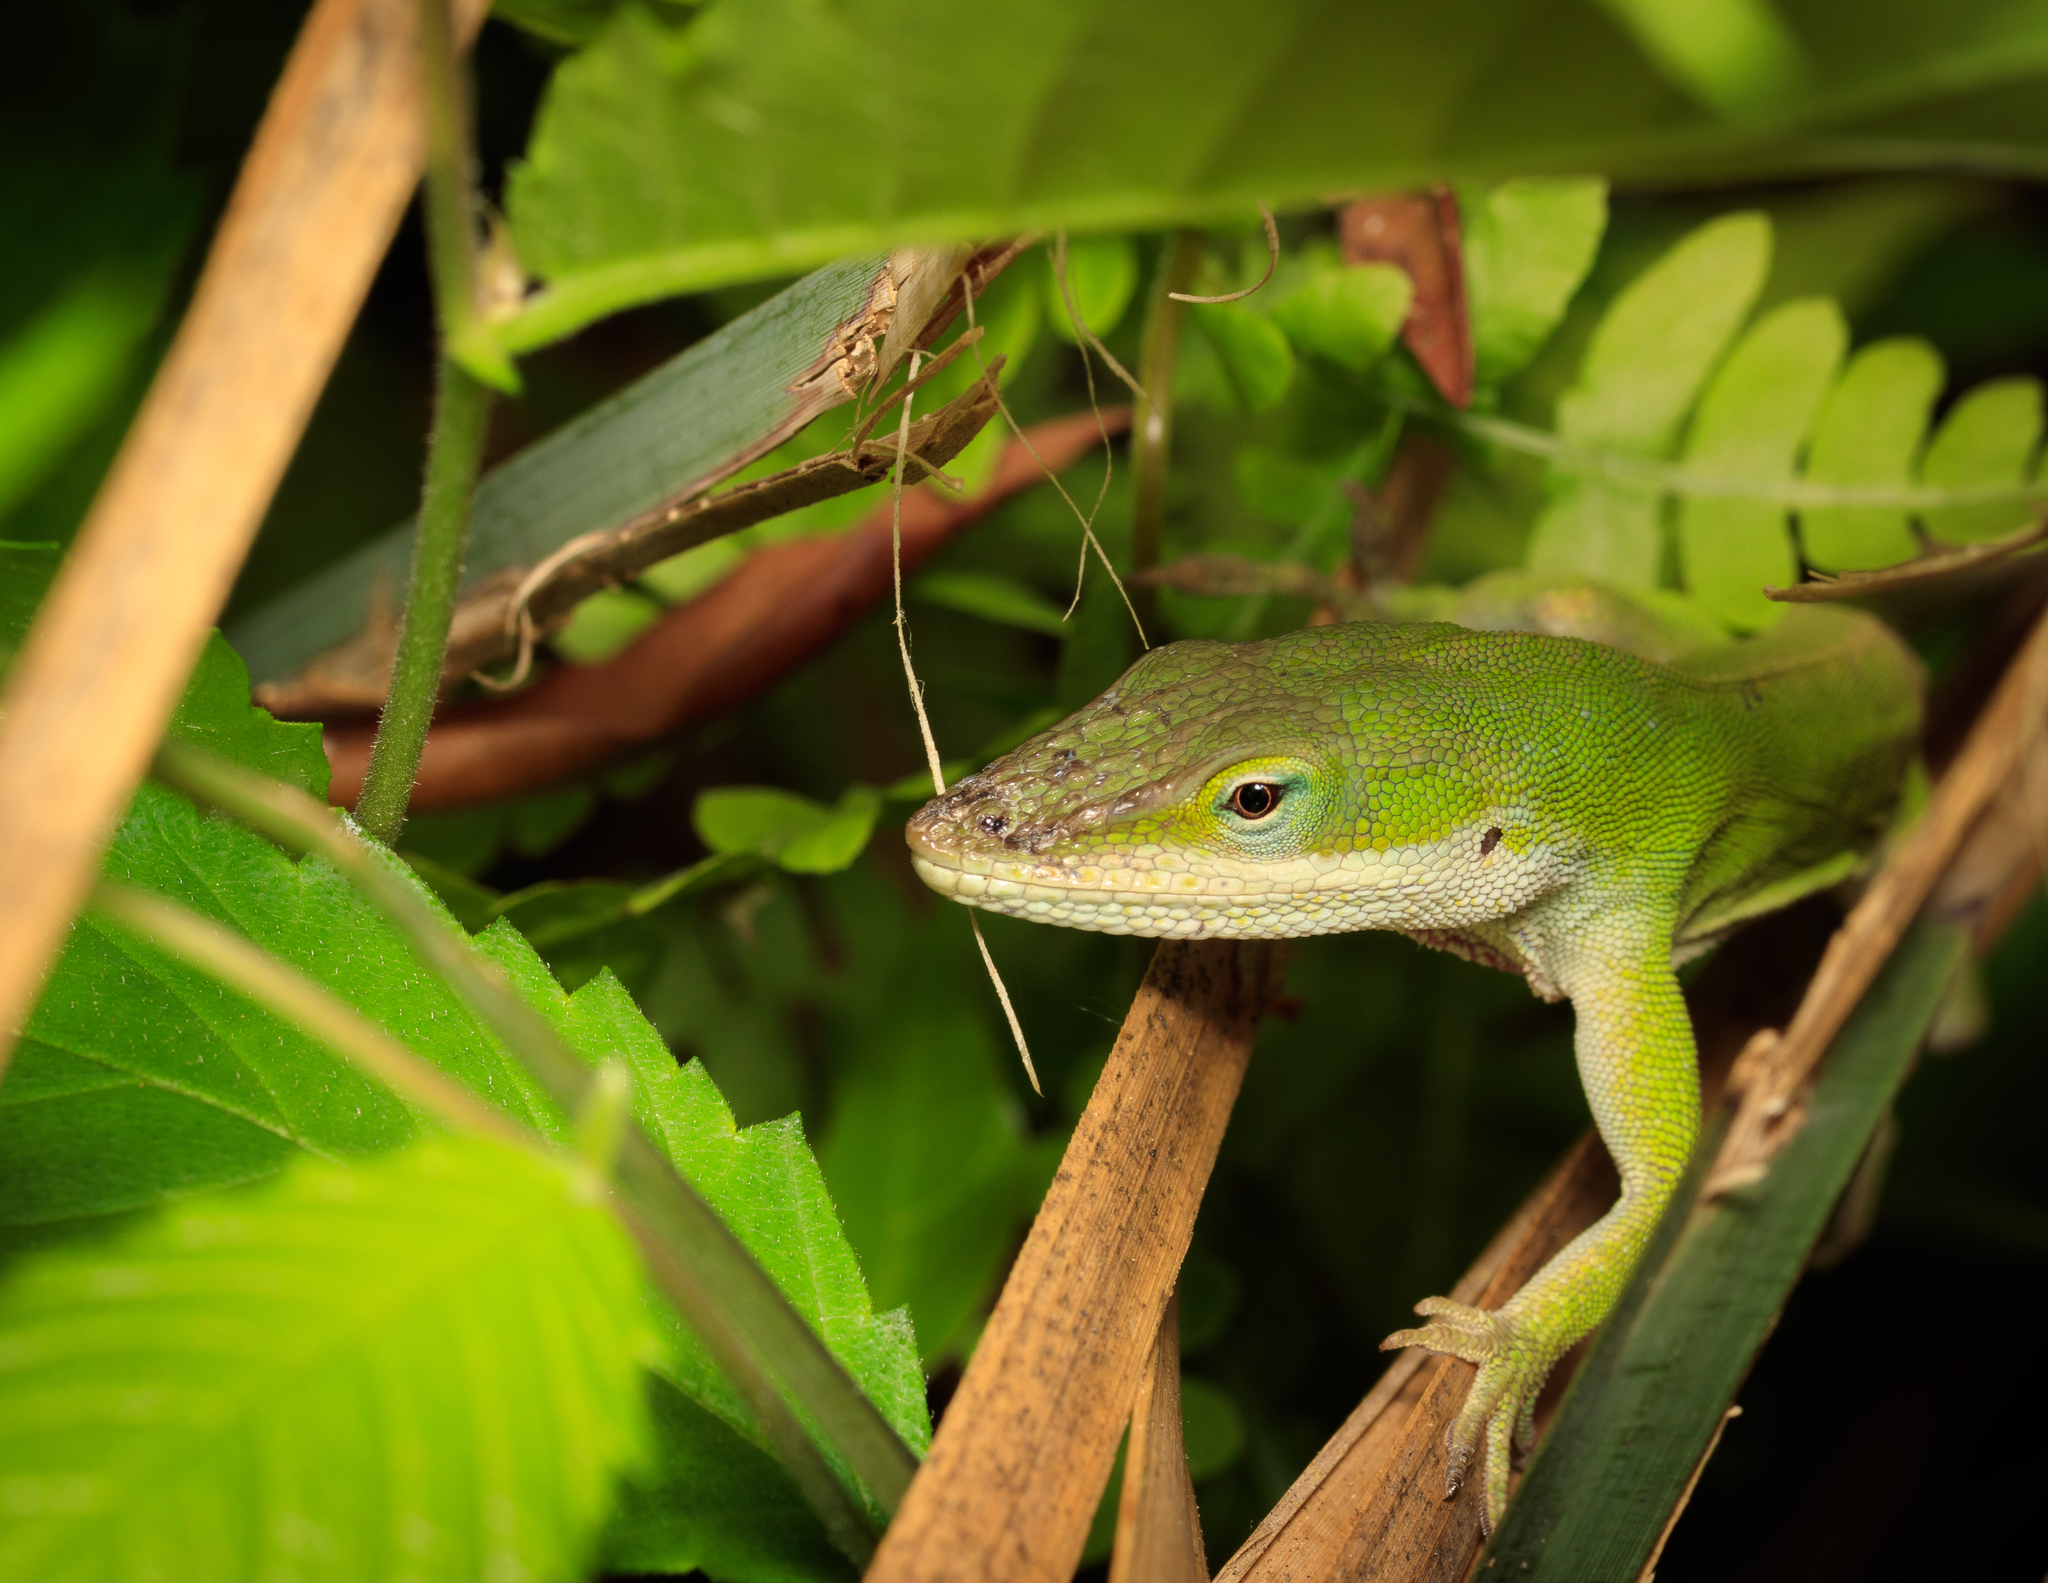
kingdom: Animalia
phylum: Chordata
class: Squamata
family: Dactyloidae
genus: Anolis
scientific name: Anolis carolinensis
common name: Green anole
